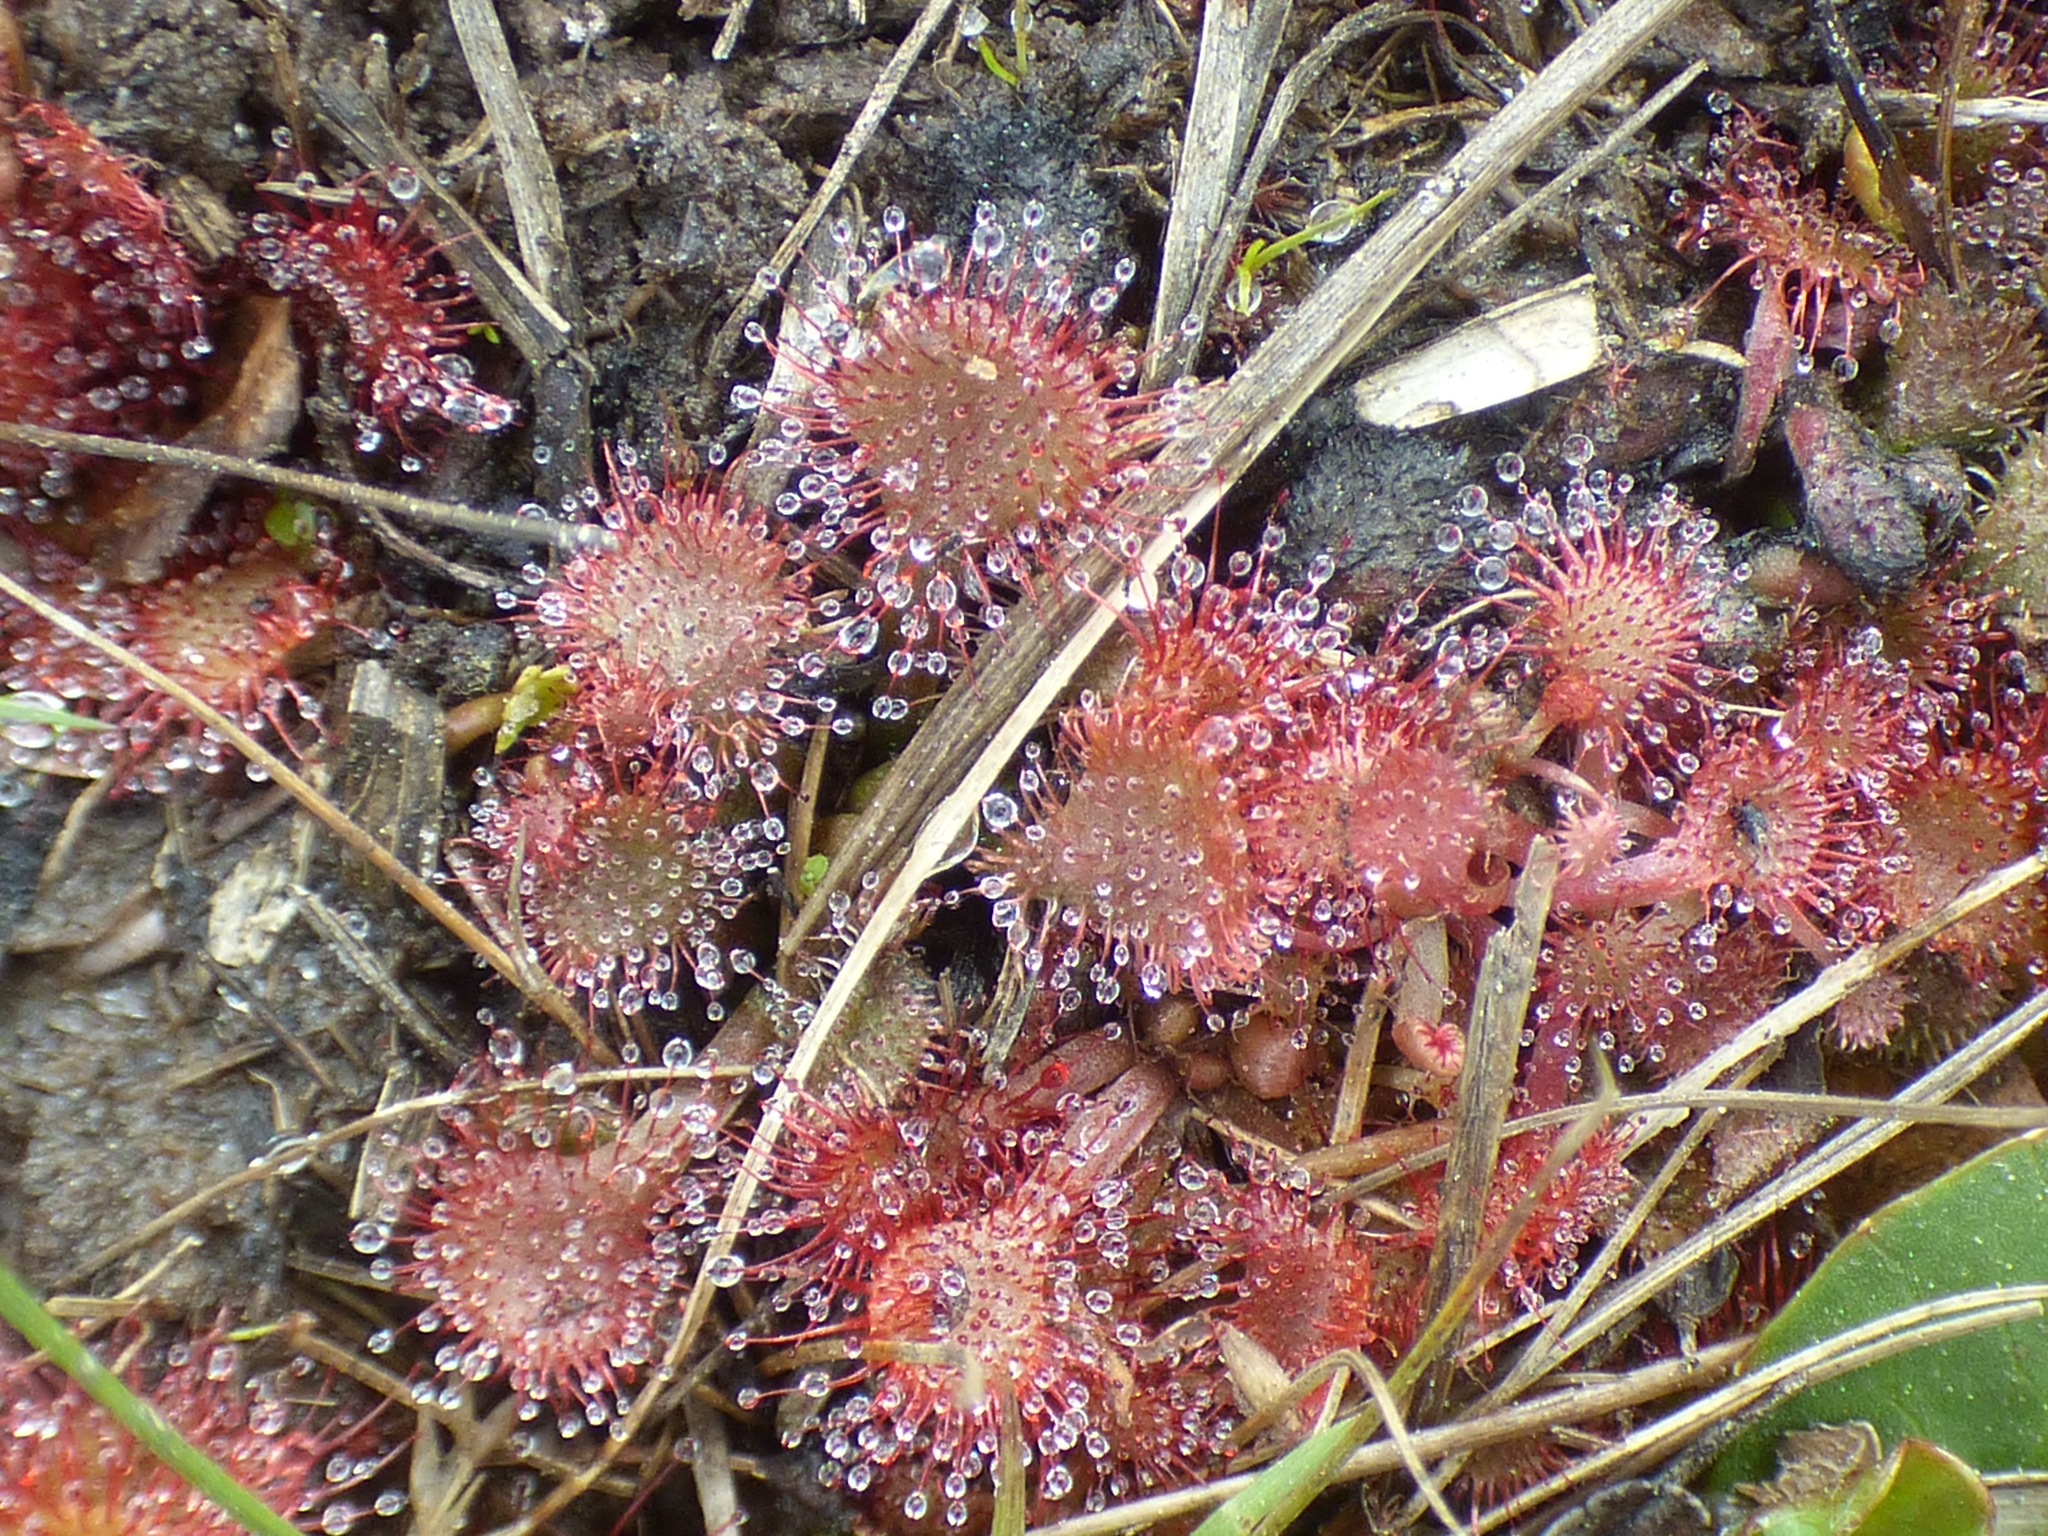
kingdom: Plantae
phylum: Tracheophyta
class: Magnoliopsida
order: Caryophyllales
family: Droseraceae
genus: Drosera
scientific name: Drosera capillaris
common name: Pink sundew
